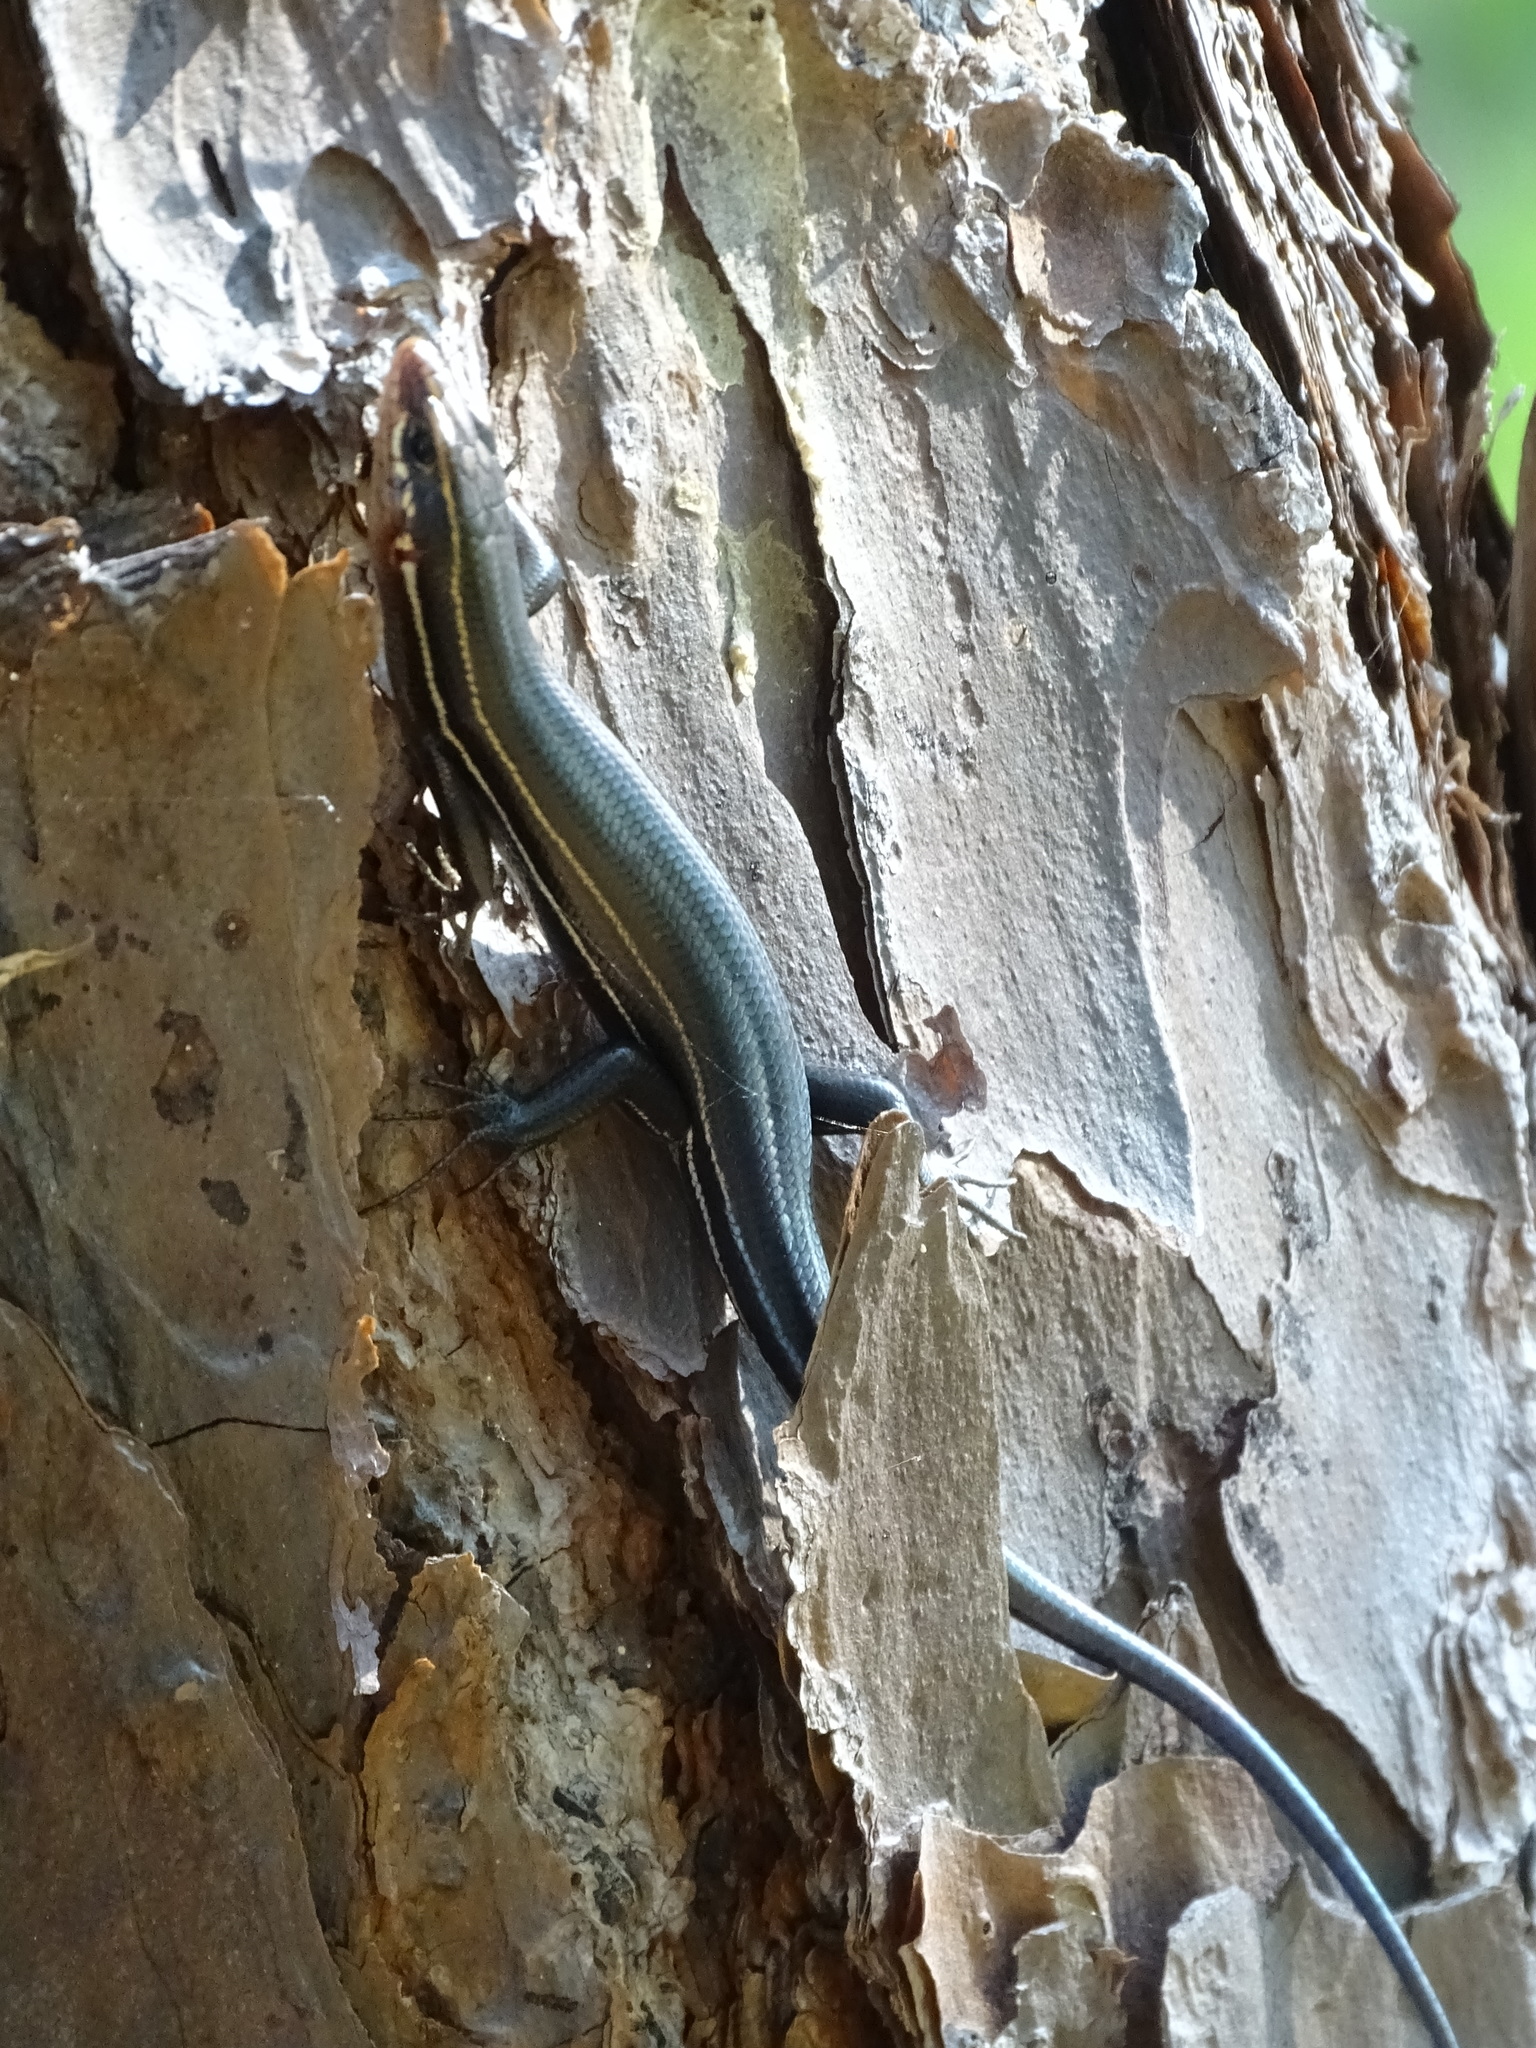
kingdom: Animalia
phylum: Chordata
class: Squamata
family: Scincidae
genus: Plestiodon
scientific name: Plestiodon inexpectatus
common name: Southeastern five-lined skink
